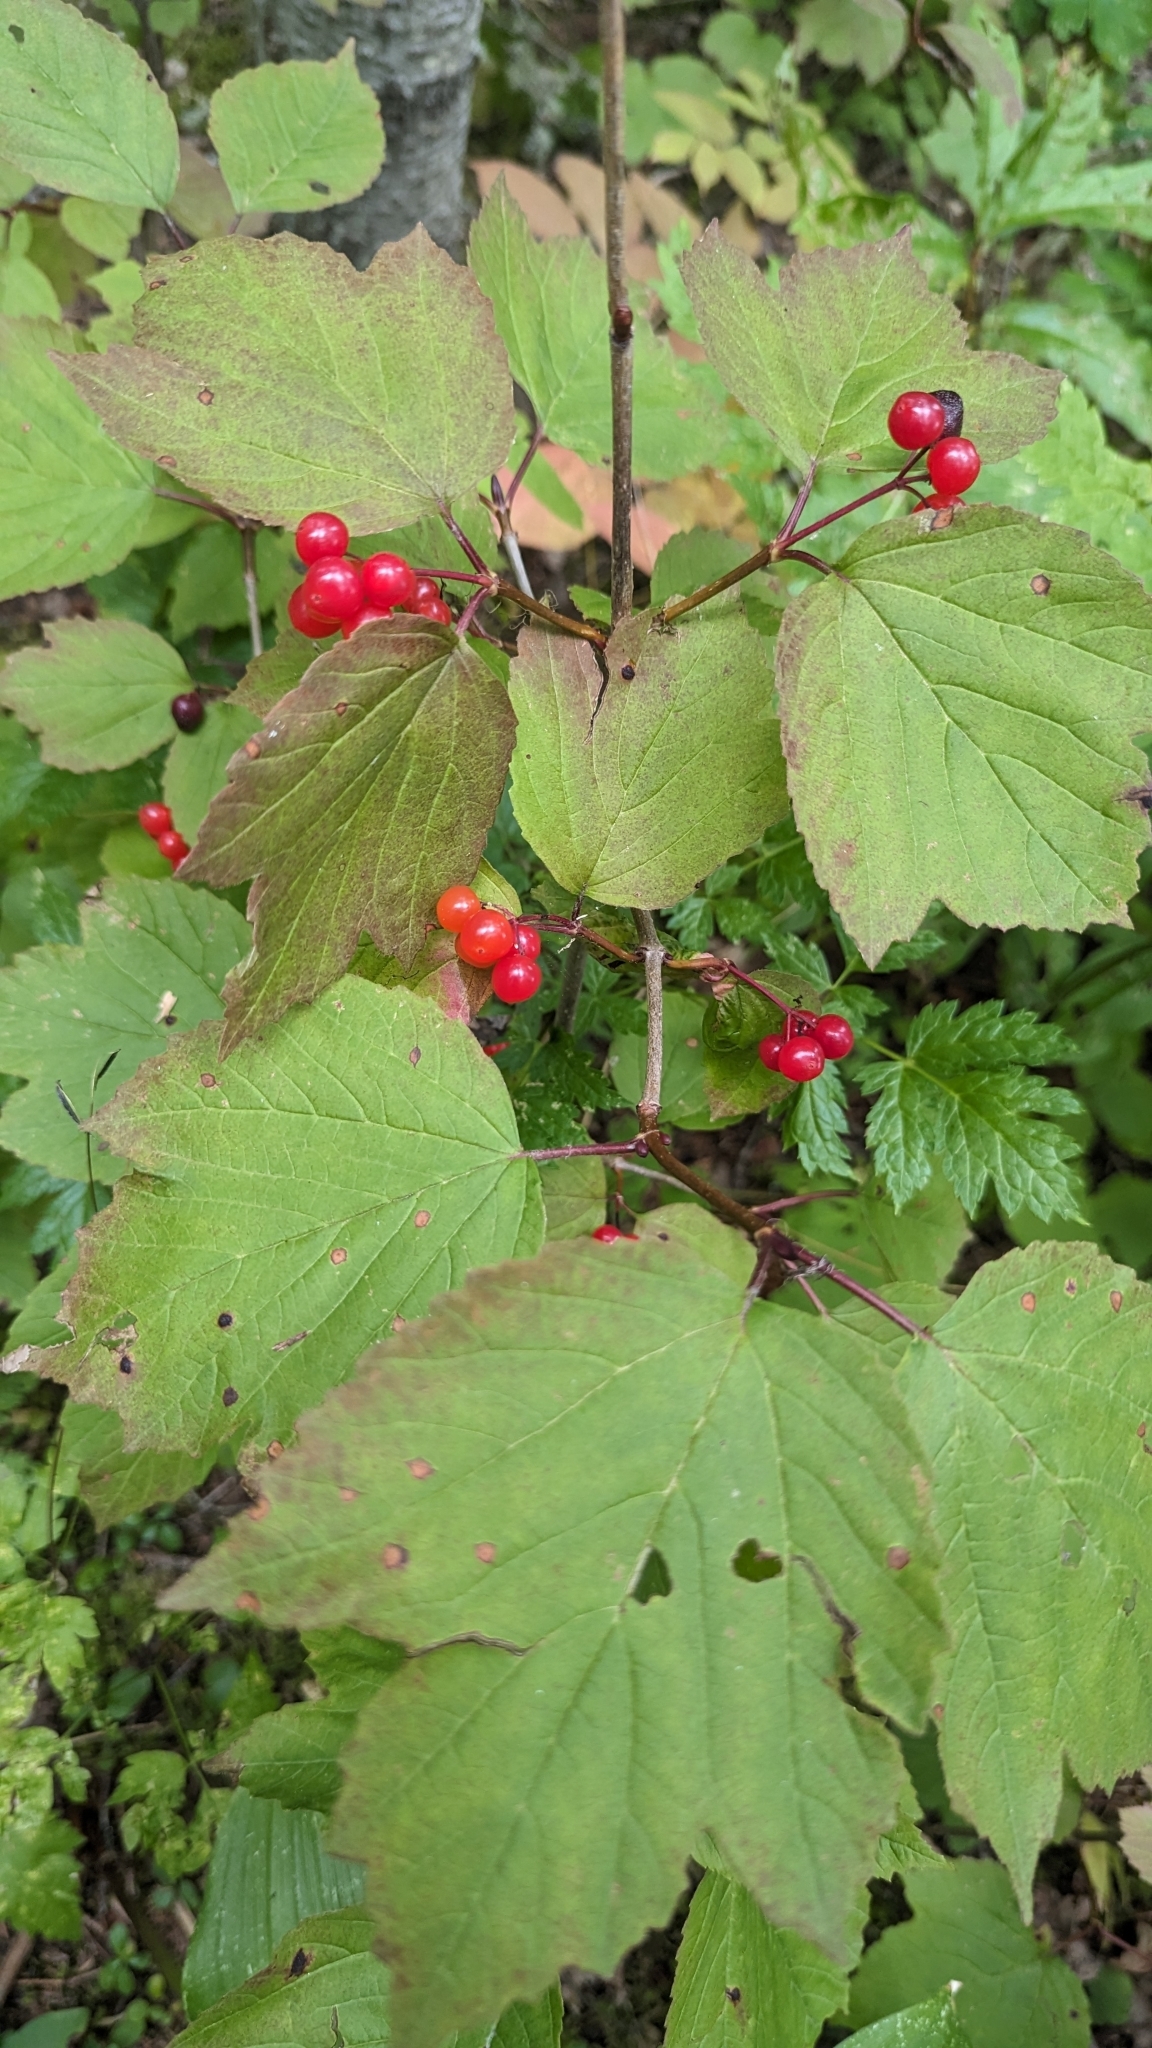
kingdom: Plantae
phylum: Tracheophyta
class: Magnoliopsida
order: Dipsacales
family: Viburnaceae
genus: Viburnum
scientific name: Viburnum edule
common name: Mooseberry
